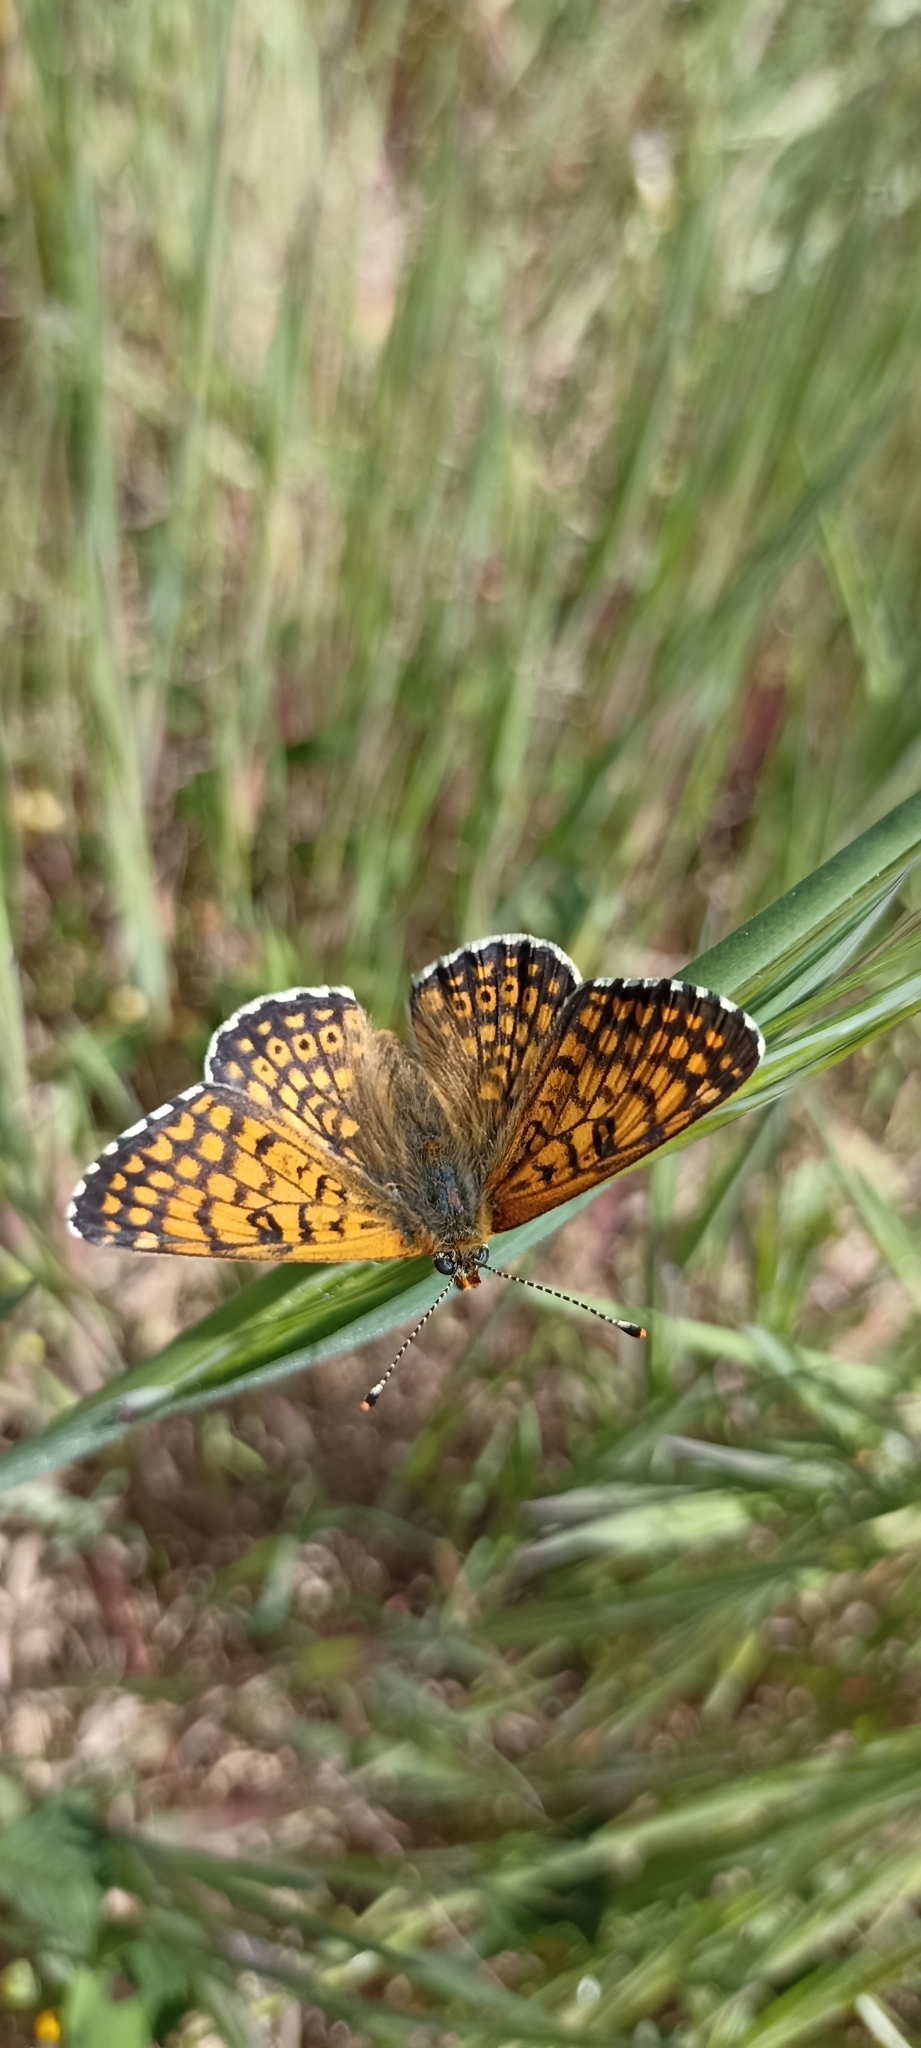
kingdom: Animalia
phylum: Arthropoda
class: Insecta
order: Lepidoptera
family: Nymphalidae
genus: Melitaea
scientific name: Melitaea cinxia
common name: Glanville fritillary
